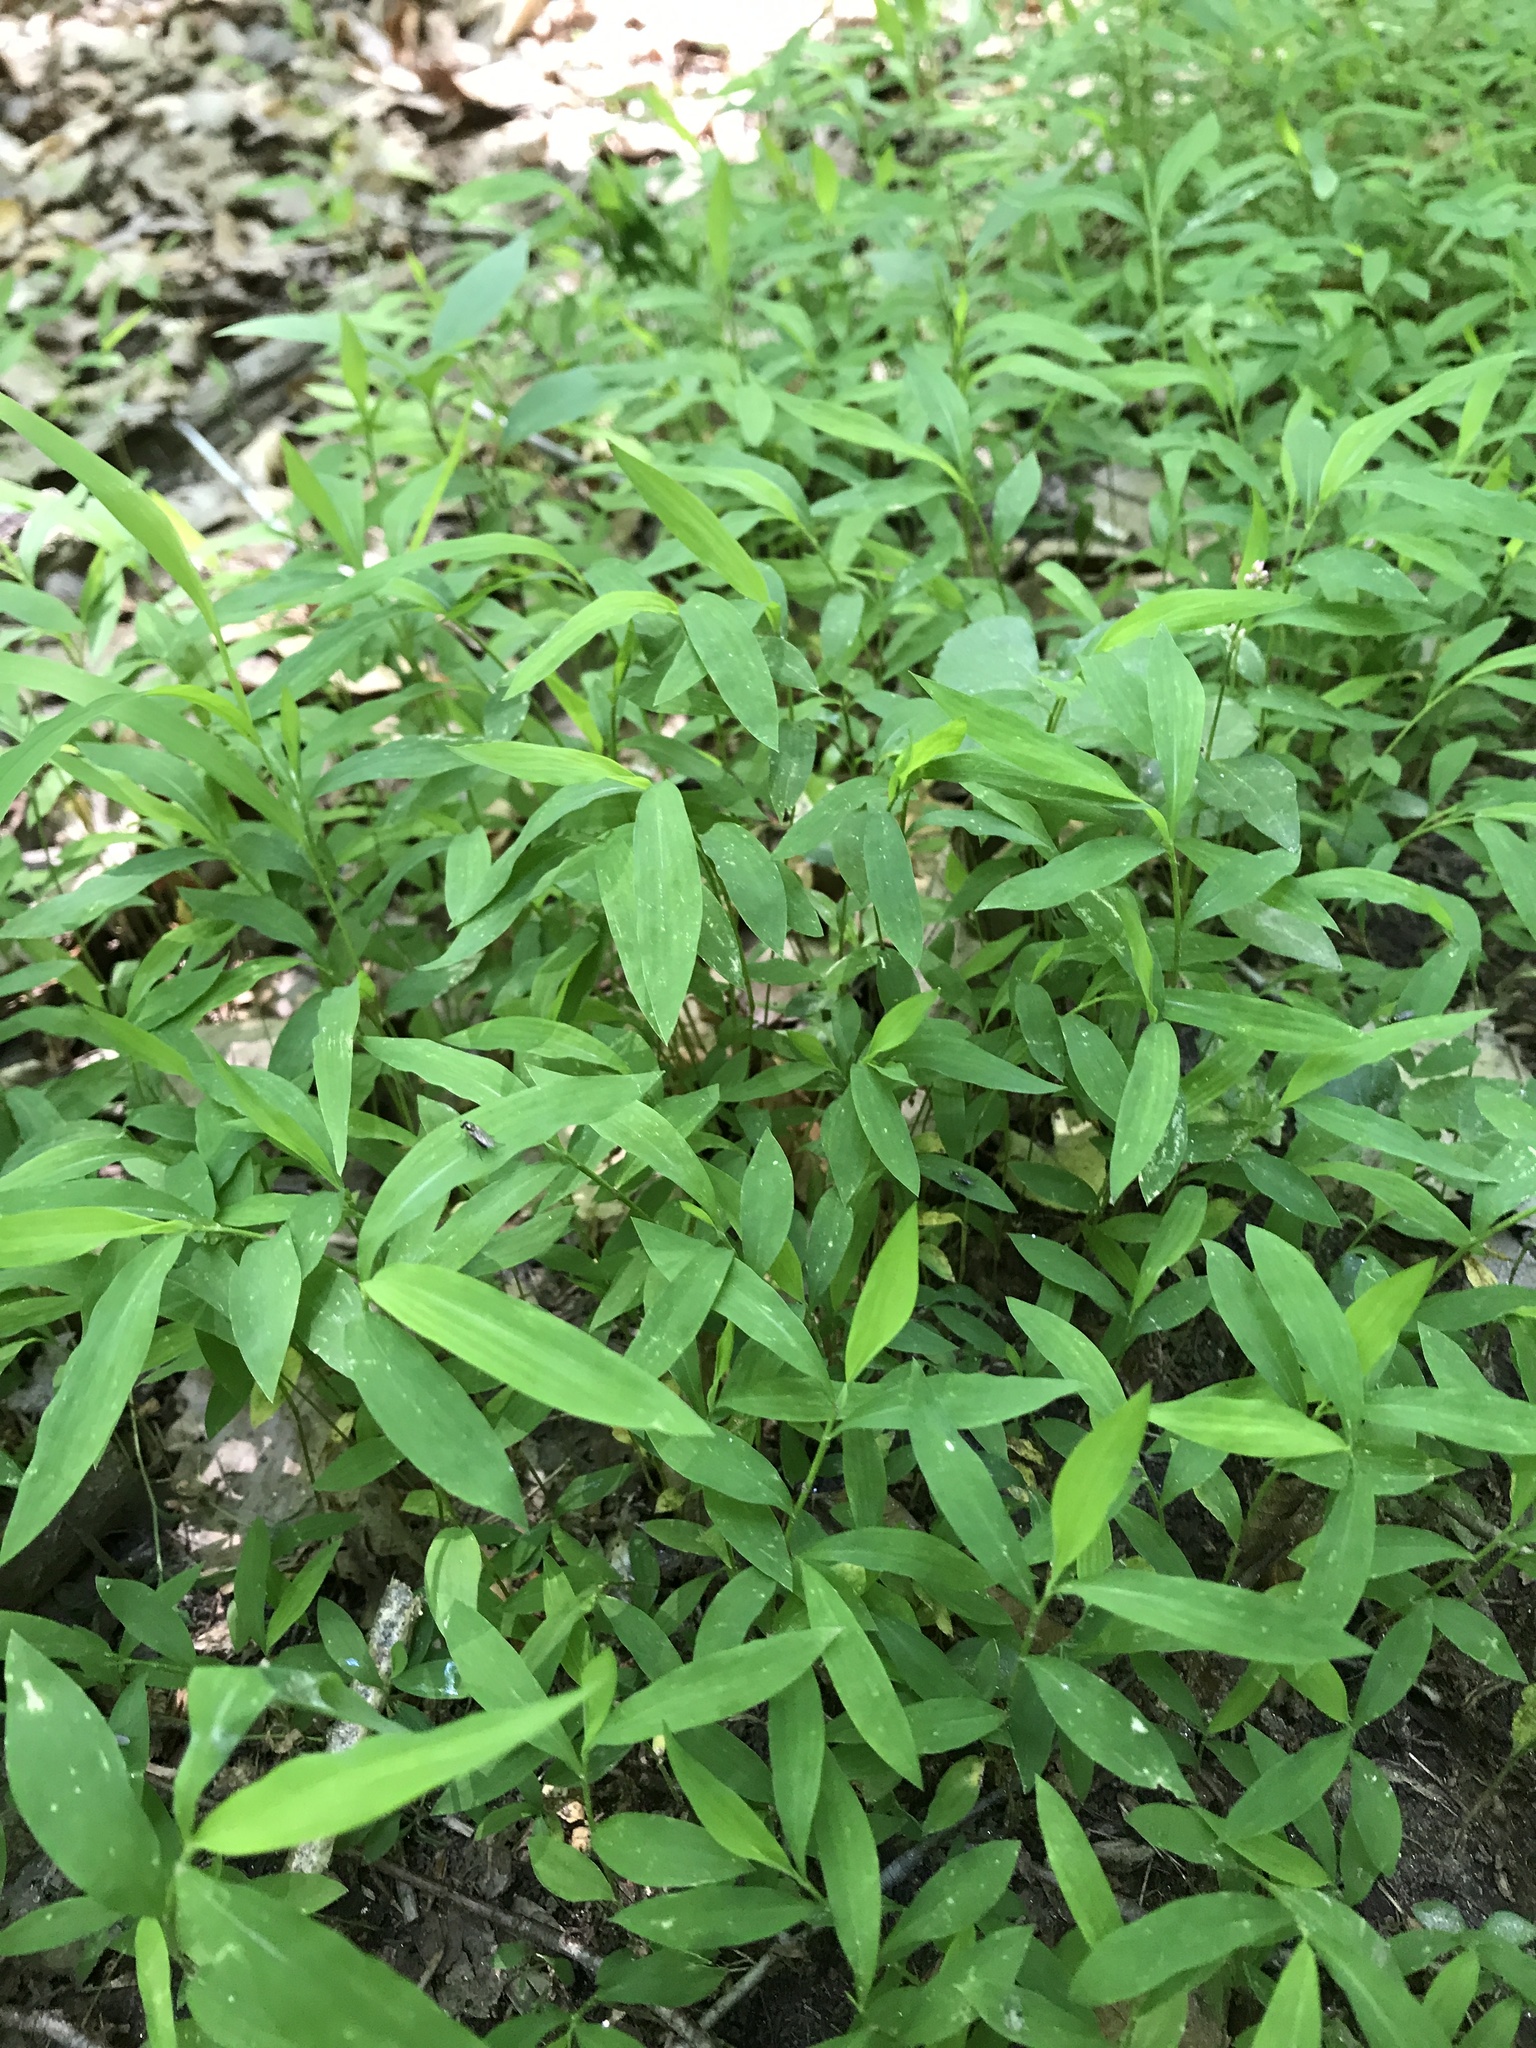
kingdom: Plantae
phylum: Tracheophyta
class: Liliopsida
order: Poales
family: Poaceae
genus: Microstegium
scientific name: Microstegium vimineum
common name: Japanese stiltgrass
